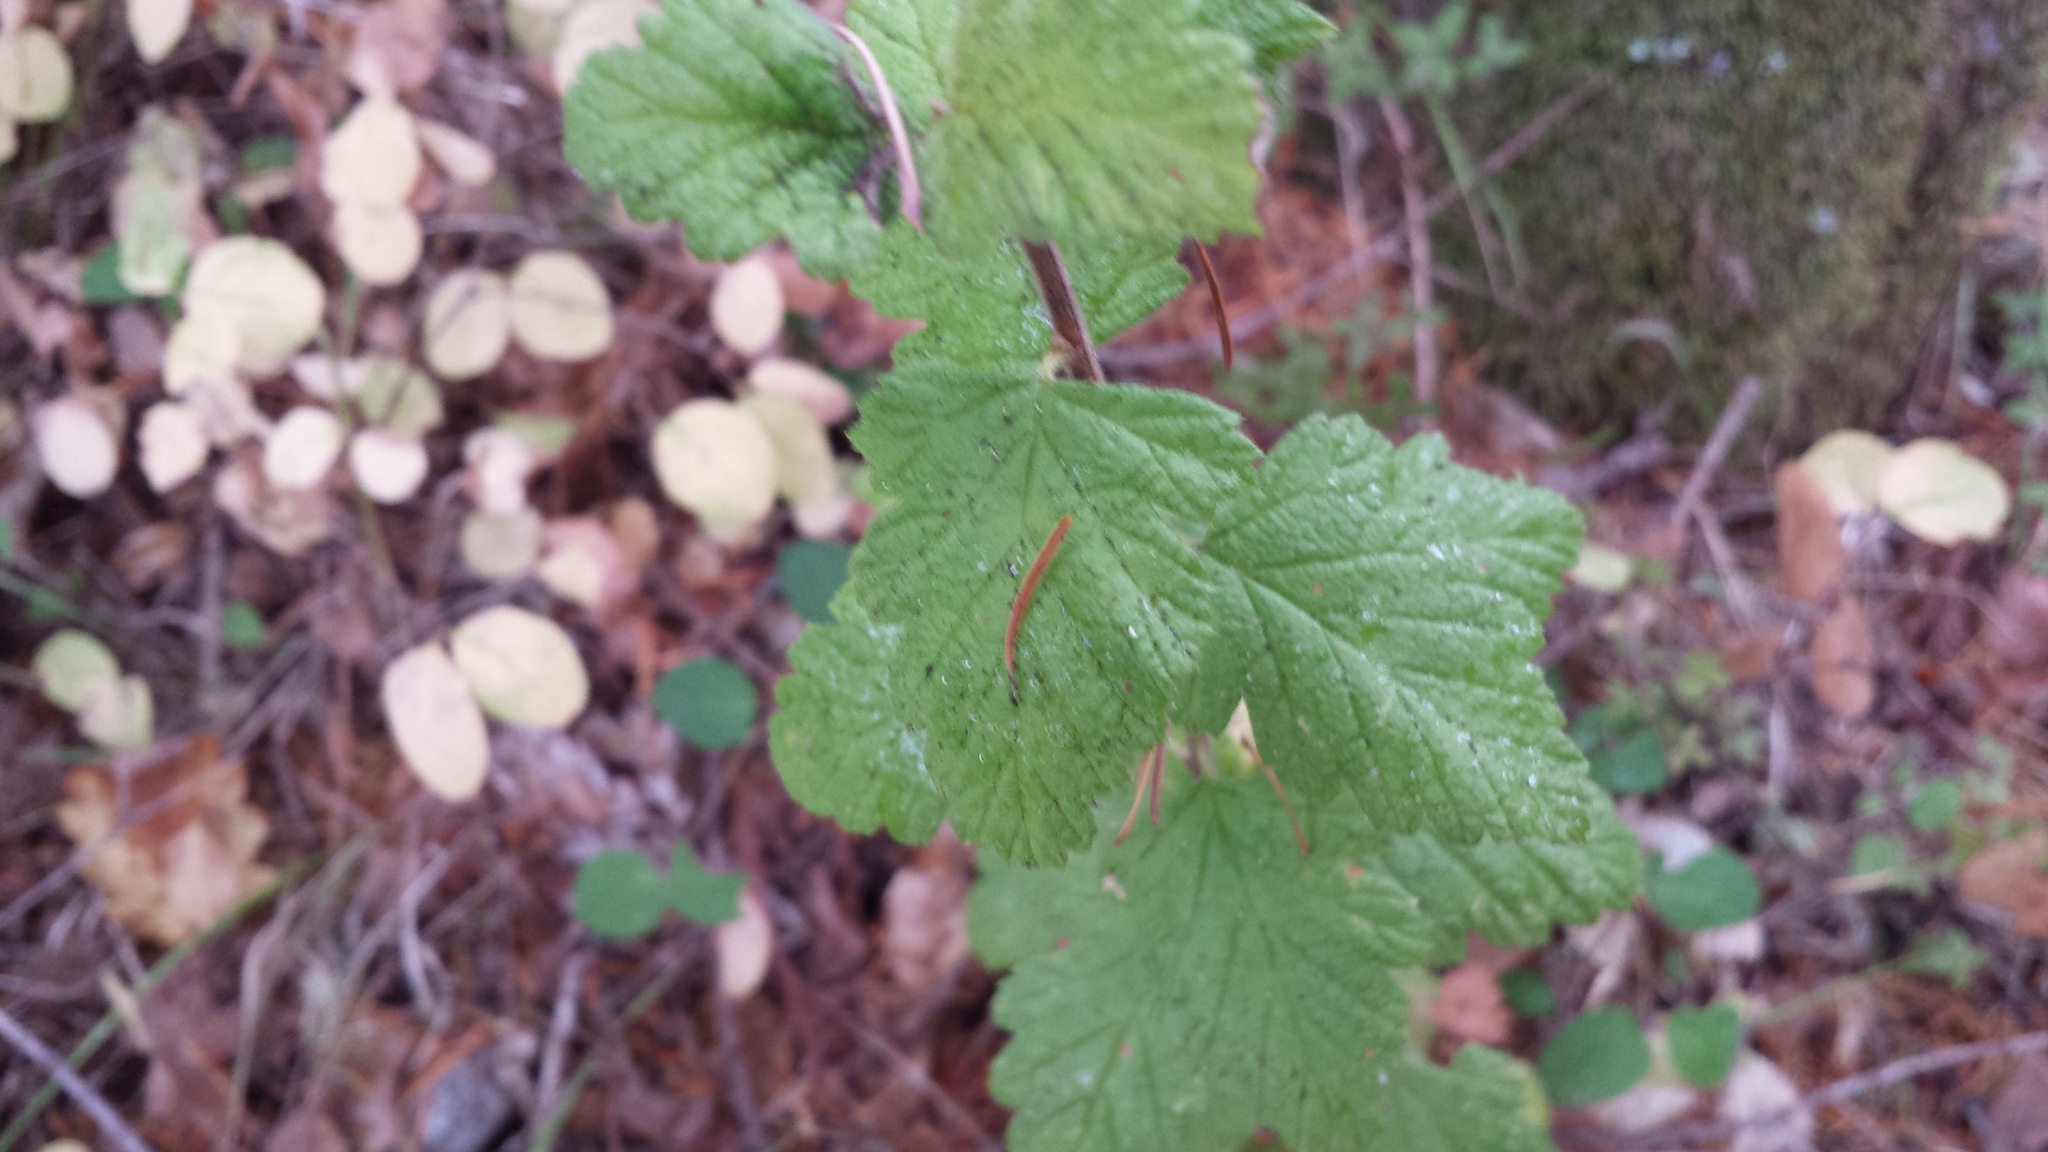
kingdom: Plantae
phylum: Tracheophyta
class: Magnoliopsida
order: Rosales
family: Rosaceae
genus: Holodiscus
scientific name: Holodiscus discolor
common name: Oceanspray
